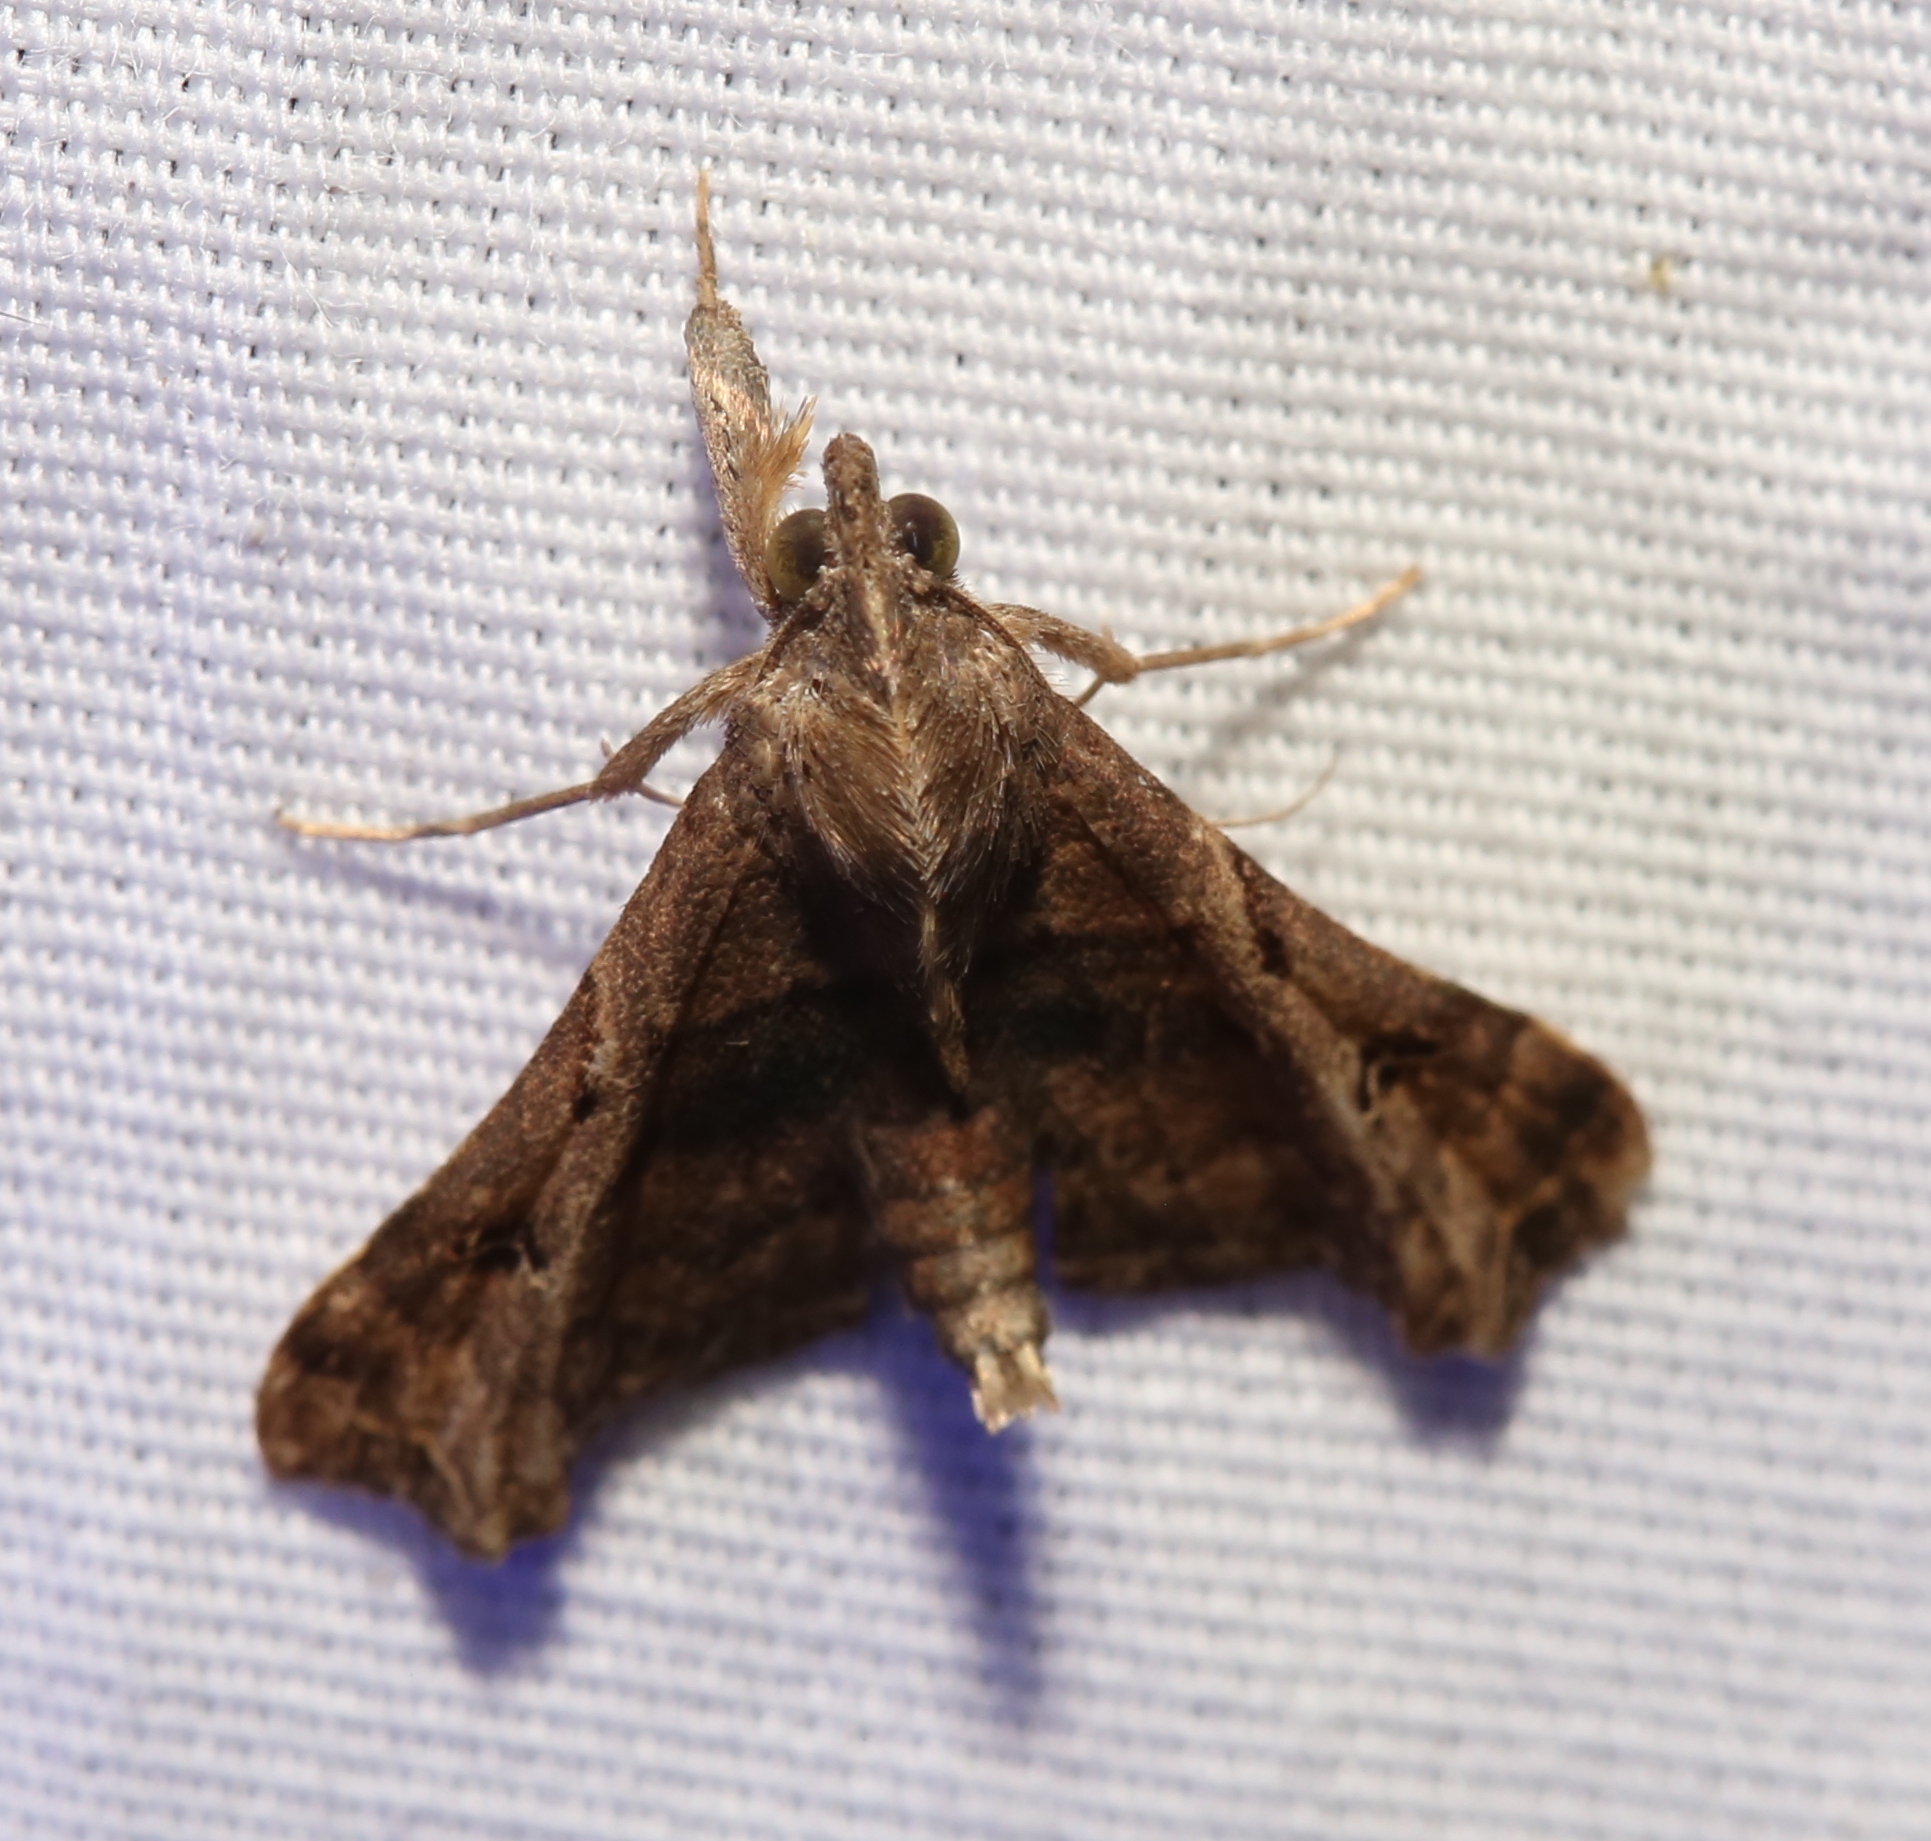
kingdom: Animalia
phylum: Arthropoda
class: Insecta
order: Lepidoptera
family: Erebidae
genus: Palthis
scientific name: Palthis asopialis
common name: Faint-spotted palthis moth
